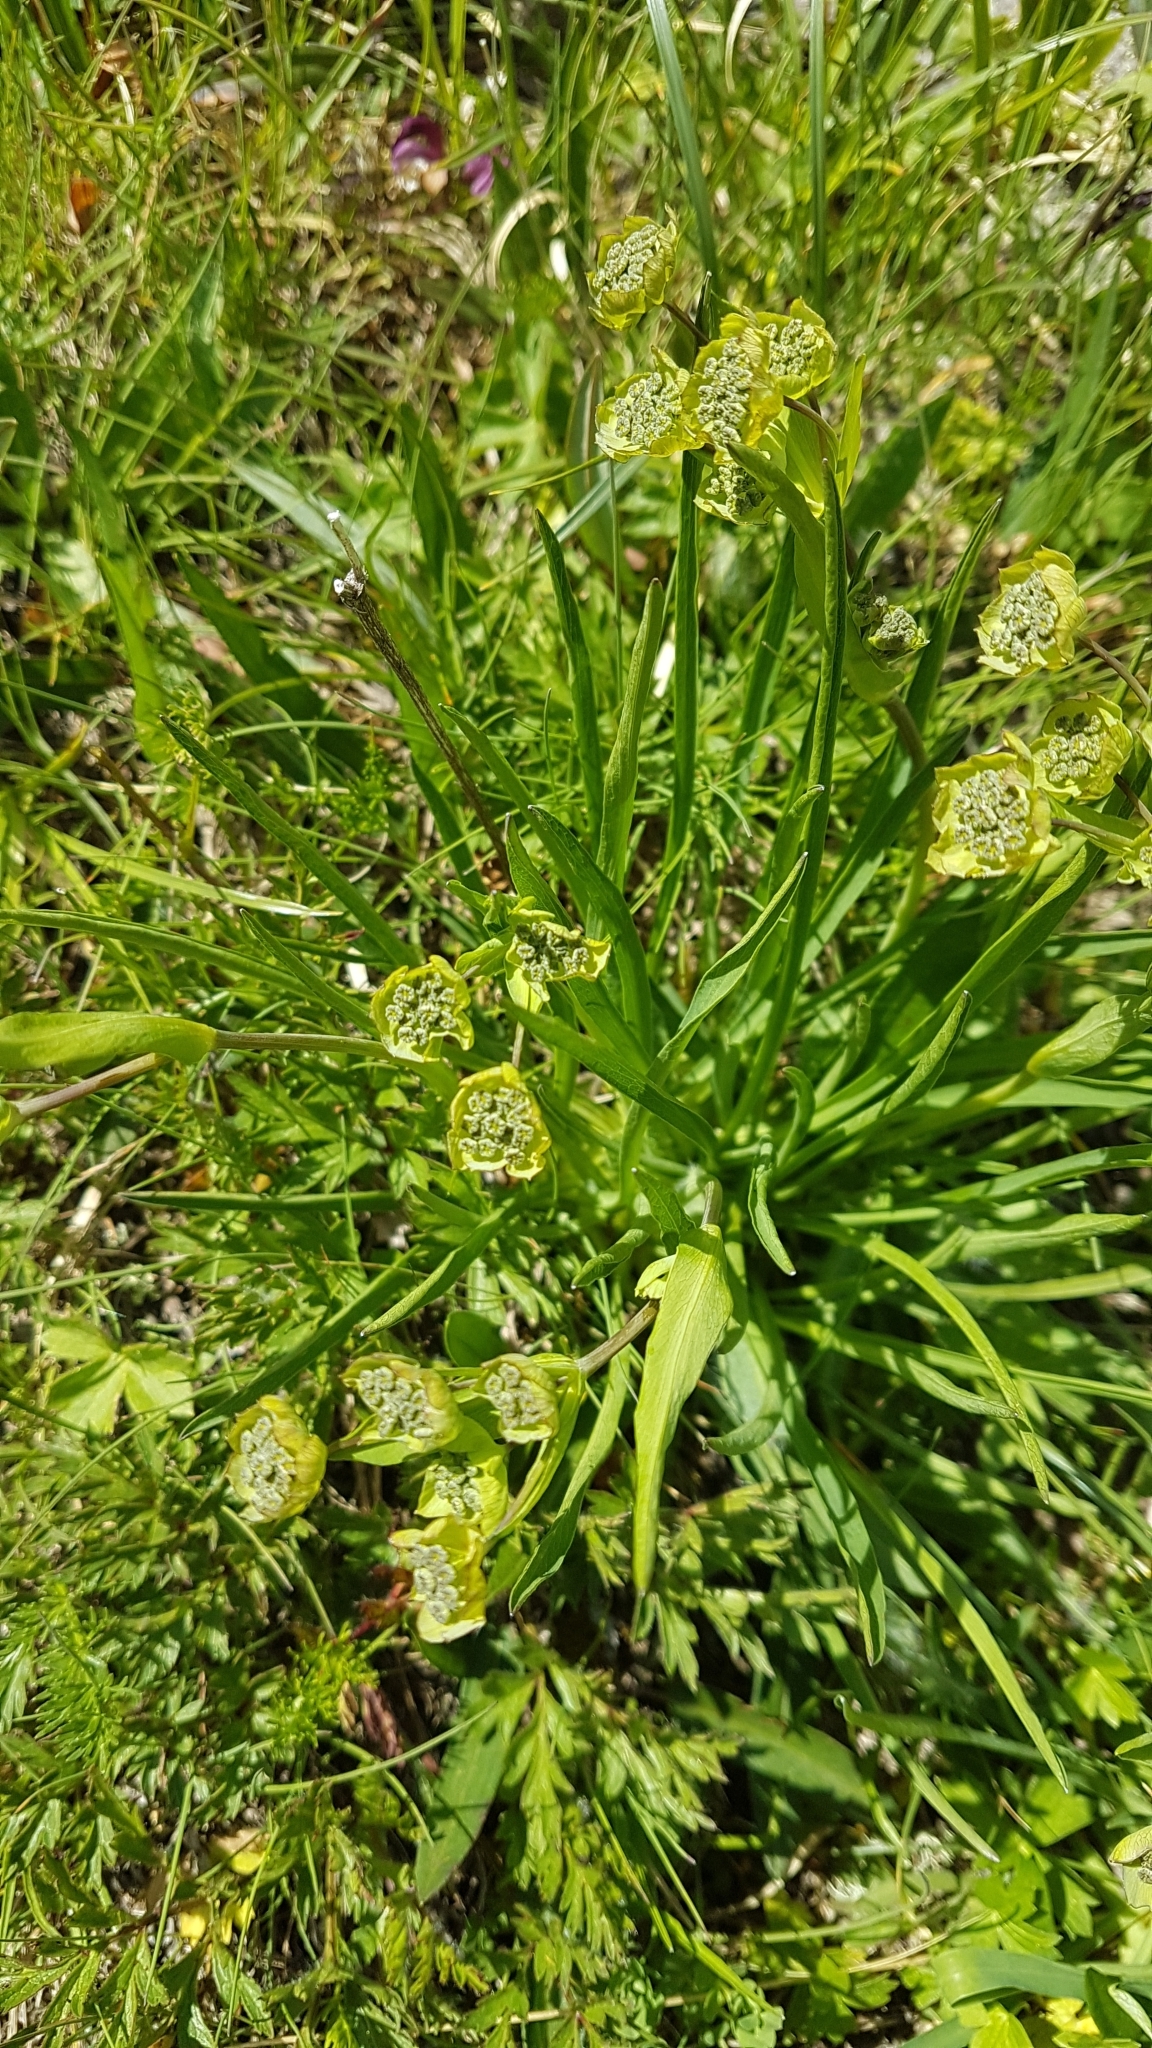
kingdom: Plantae
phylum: Tracheophyta
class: Magnoliopsida
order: Apiales
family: Apiaceae
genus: Bupleurum
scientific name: Bupleurum stellatum
